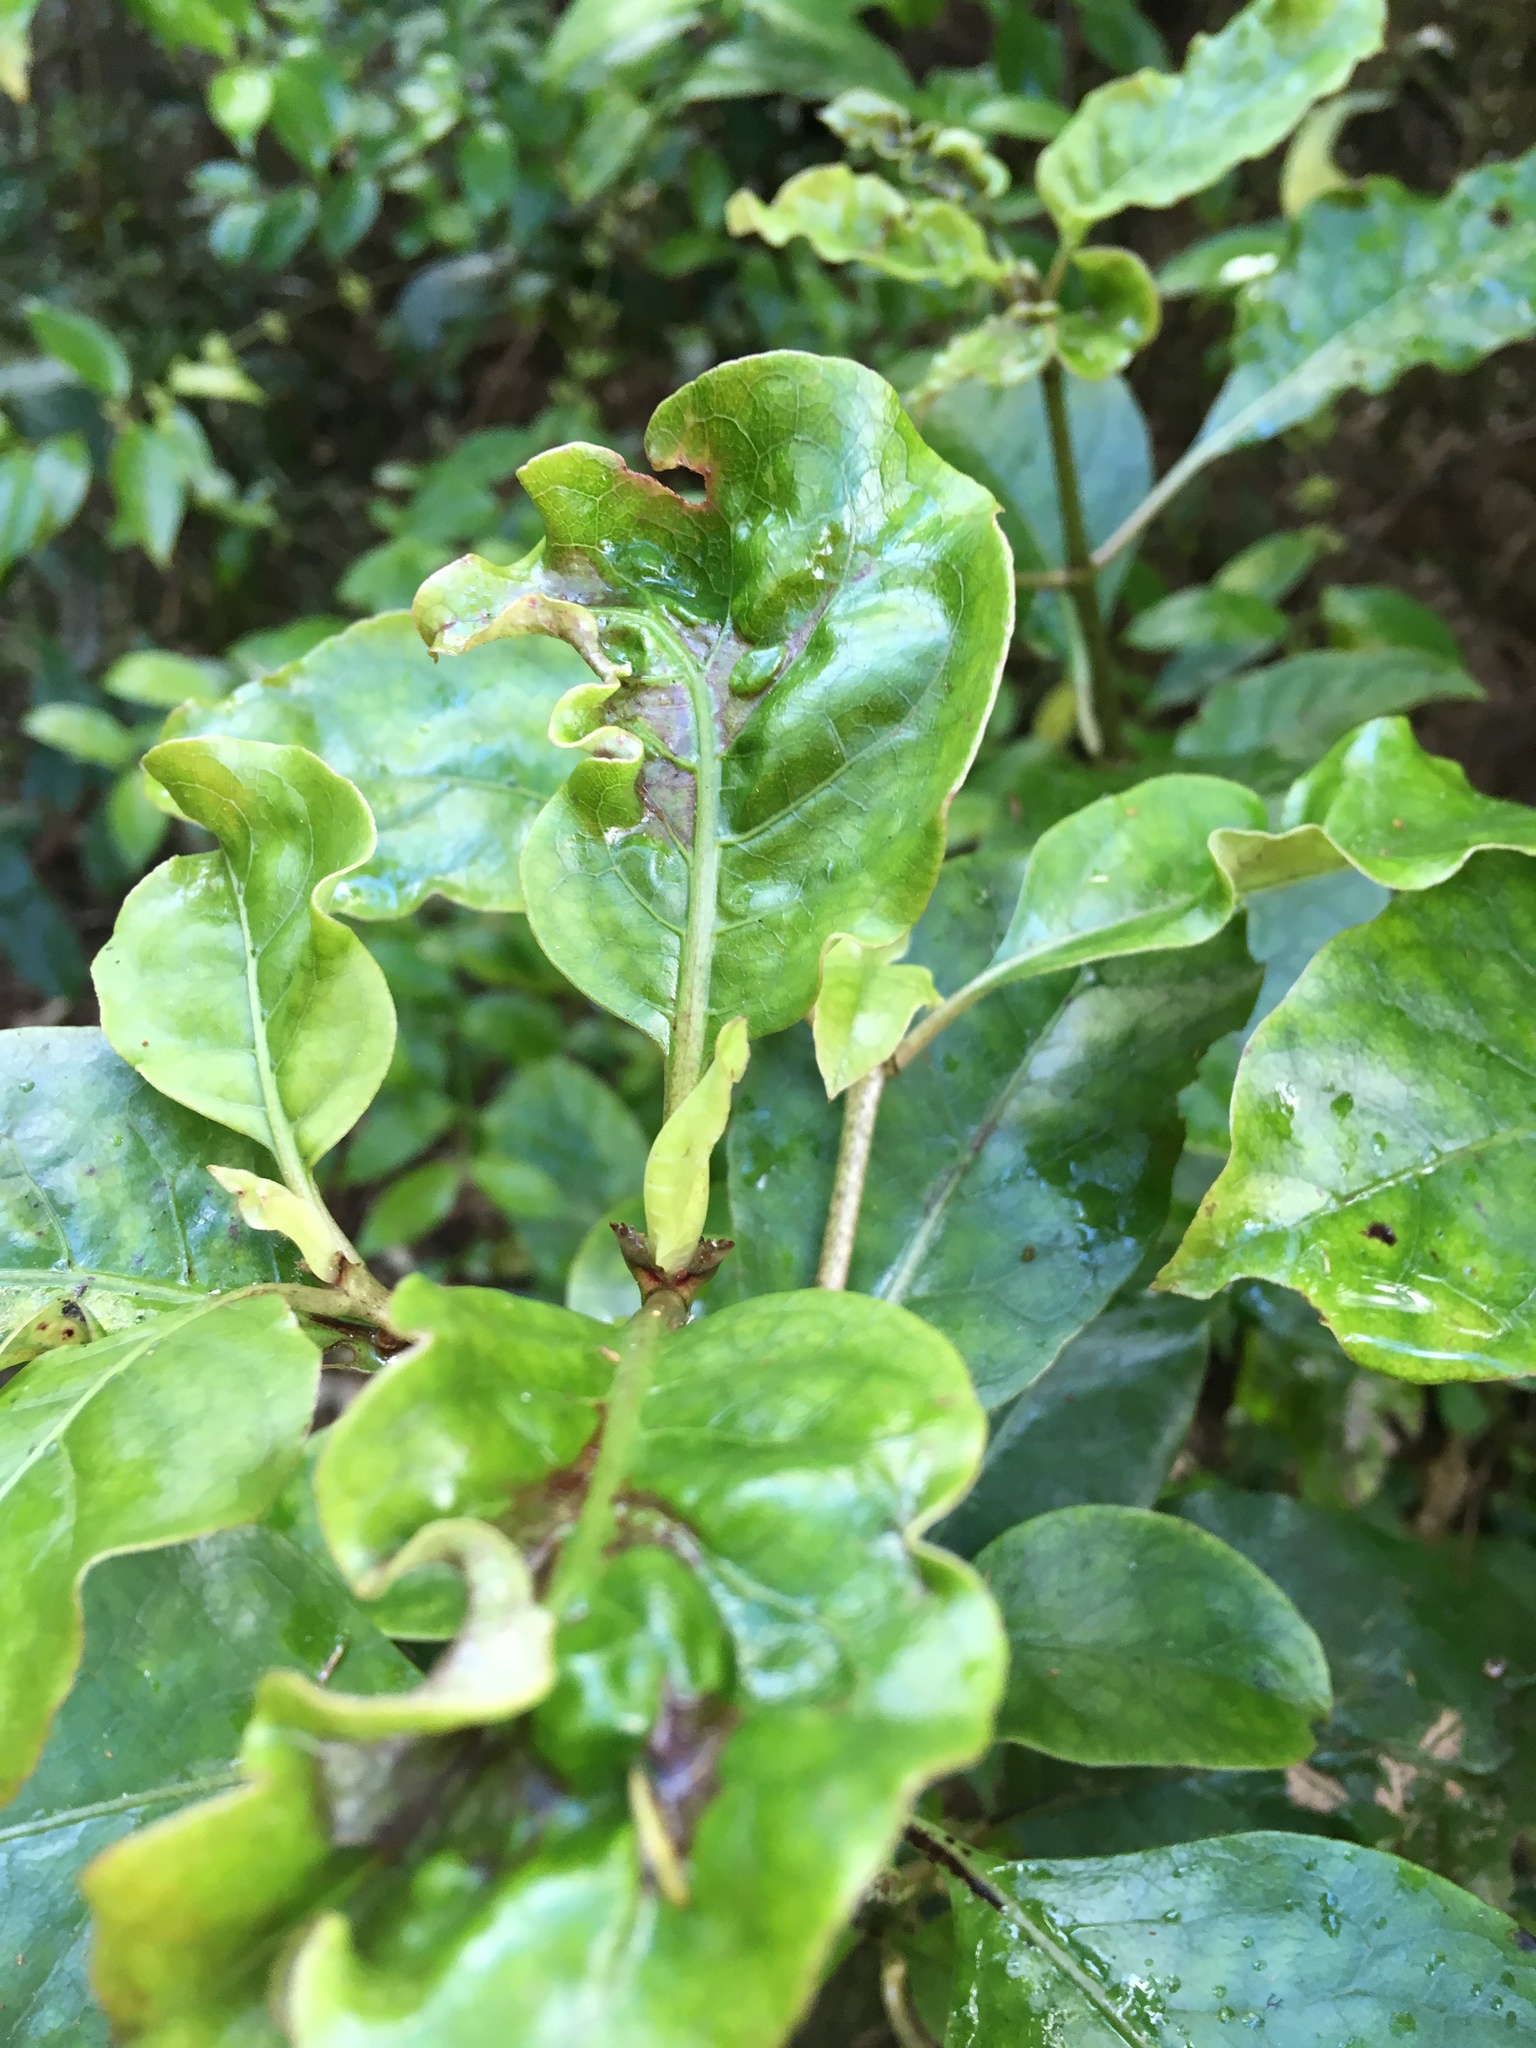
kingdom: Plantae
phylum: Tracheophyta
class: Magnoliopsida
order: Gentianales
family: Rubiaceae
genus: Coprosma
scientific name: Coprosma autumnalis
